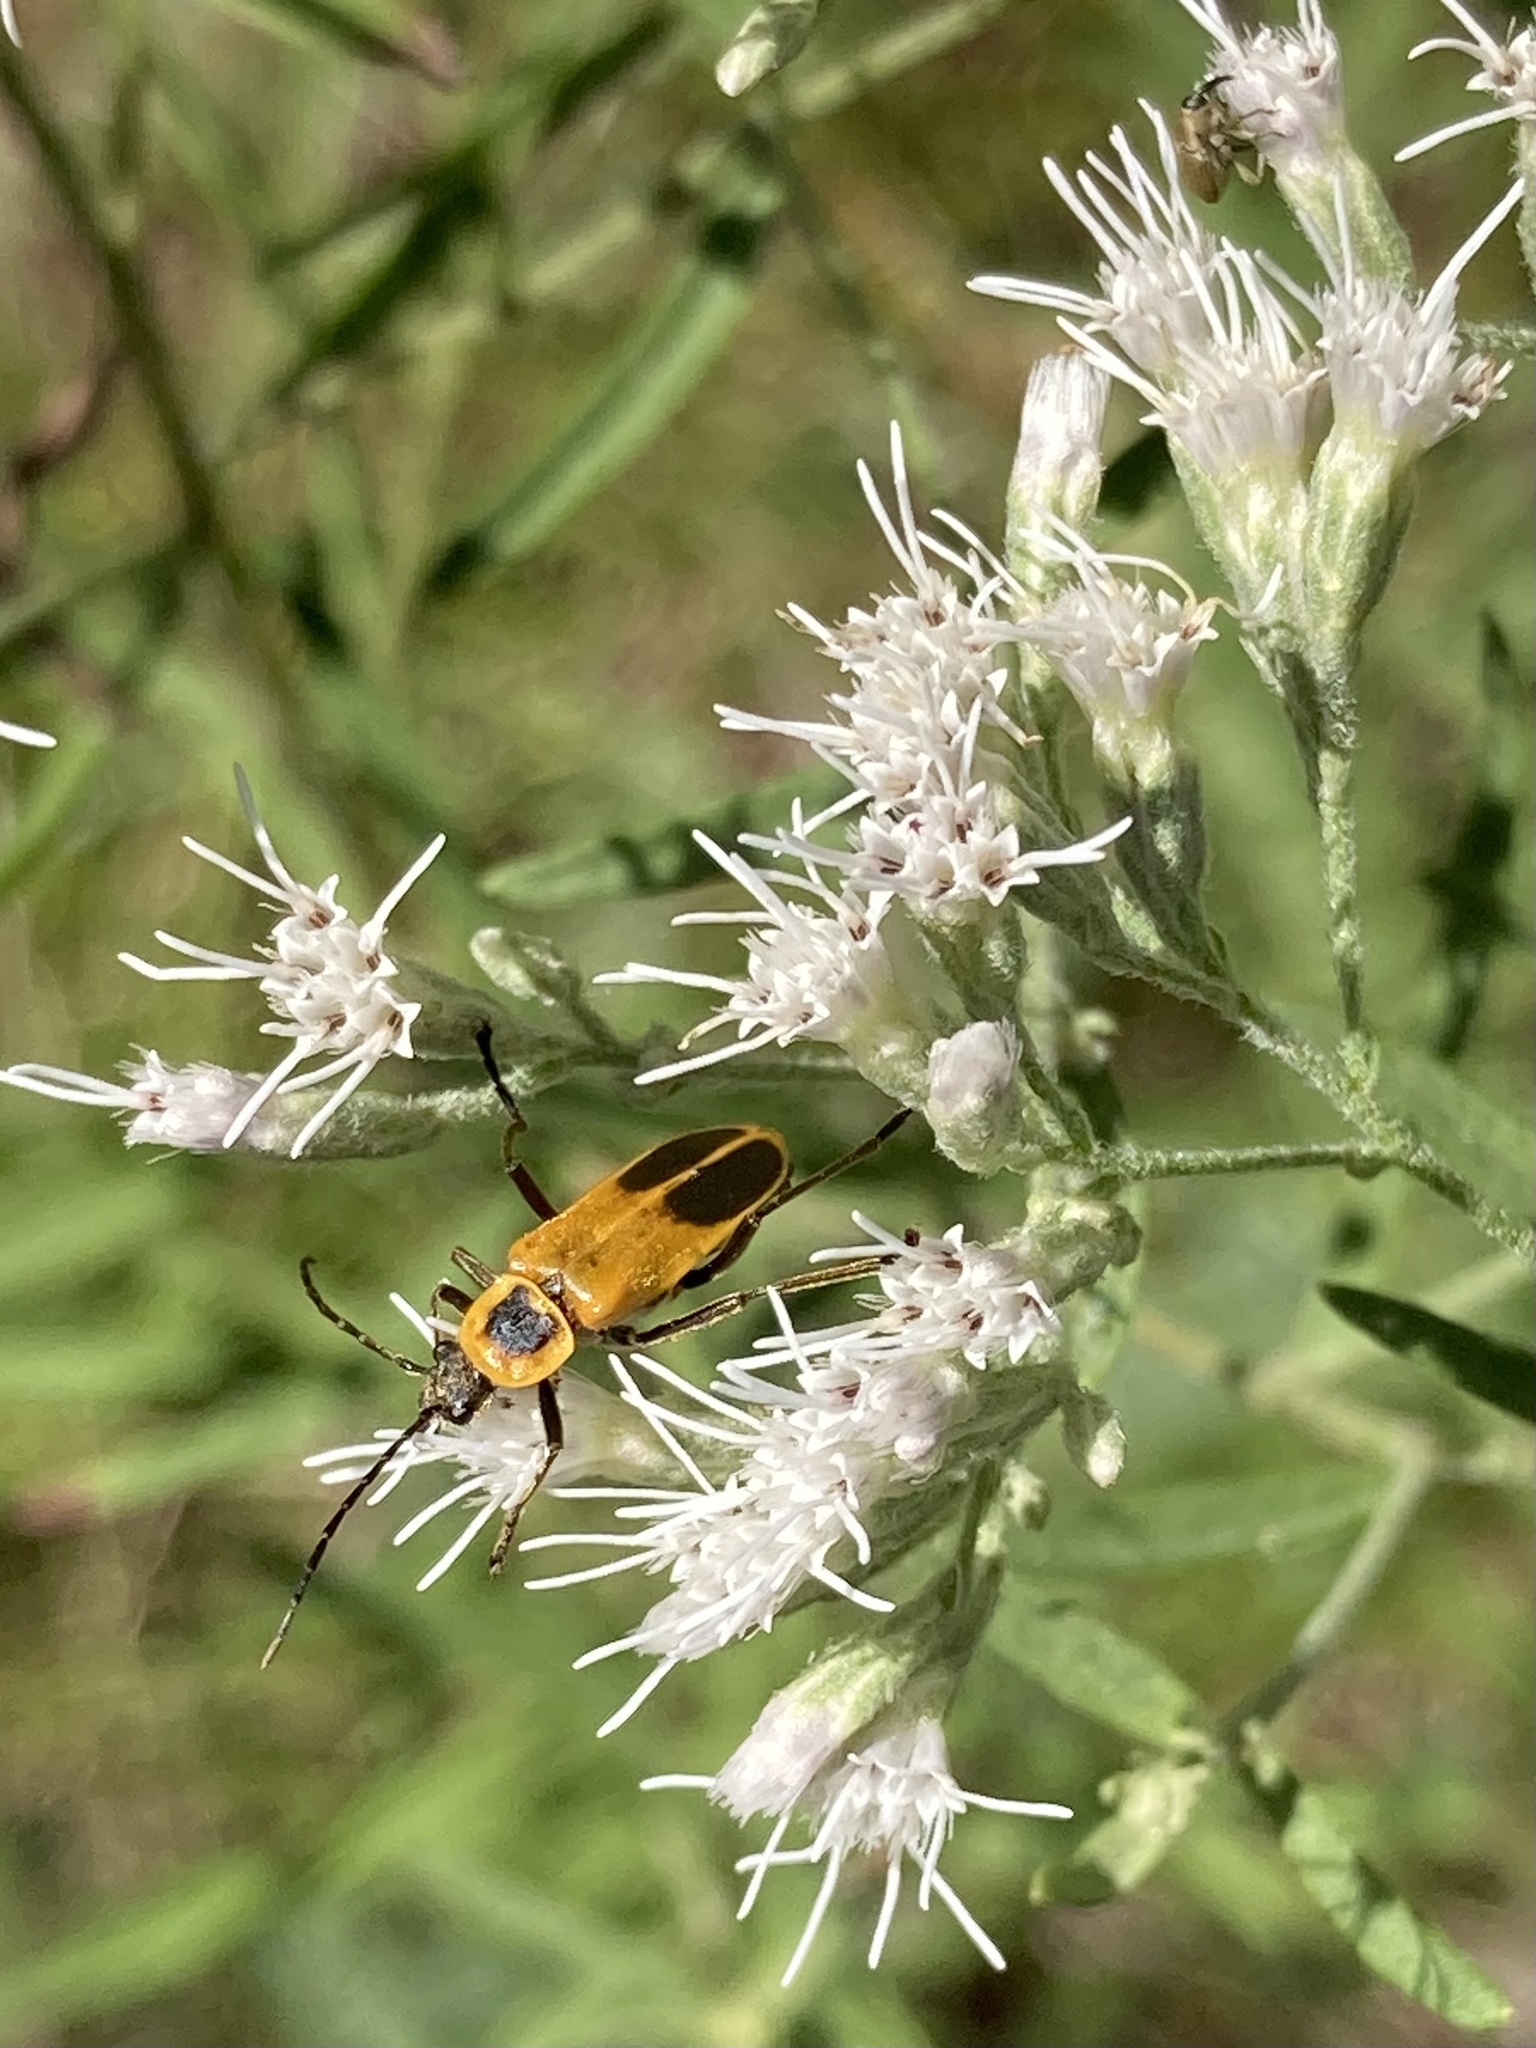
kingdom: Animalia
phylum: Arthropoda
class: Insecta
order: Coleoptera
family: Cantharidae
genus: Chauliognathus
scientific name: Chauliognathus pensylvanicus
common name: Goldenrod soldier beetle
